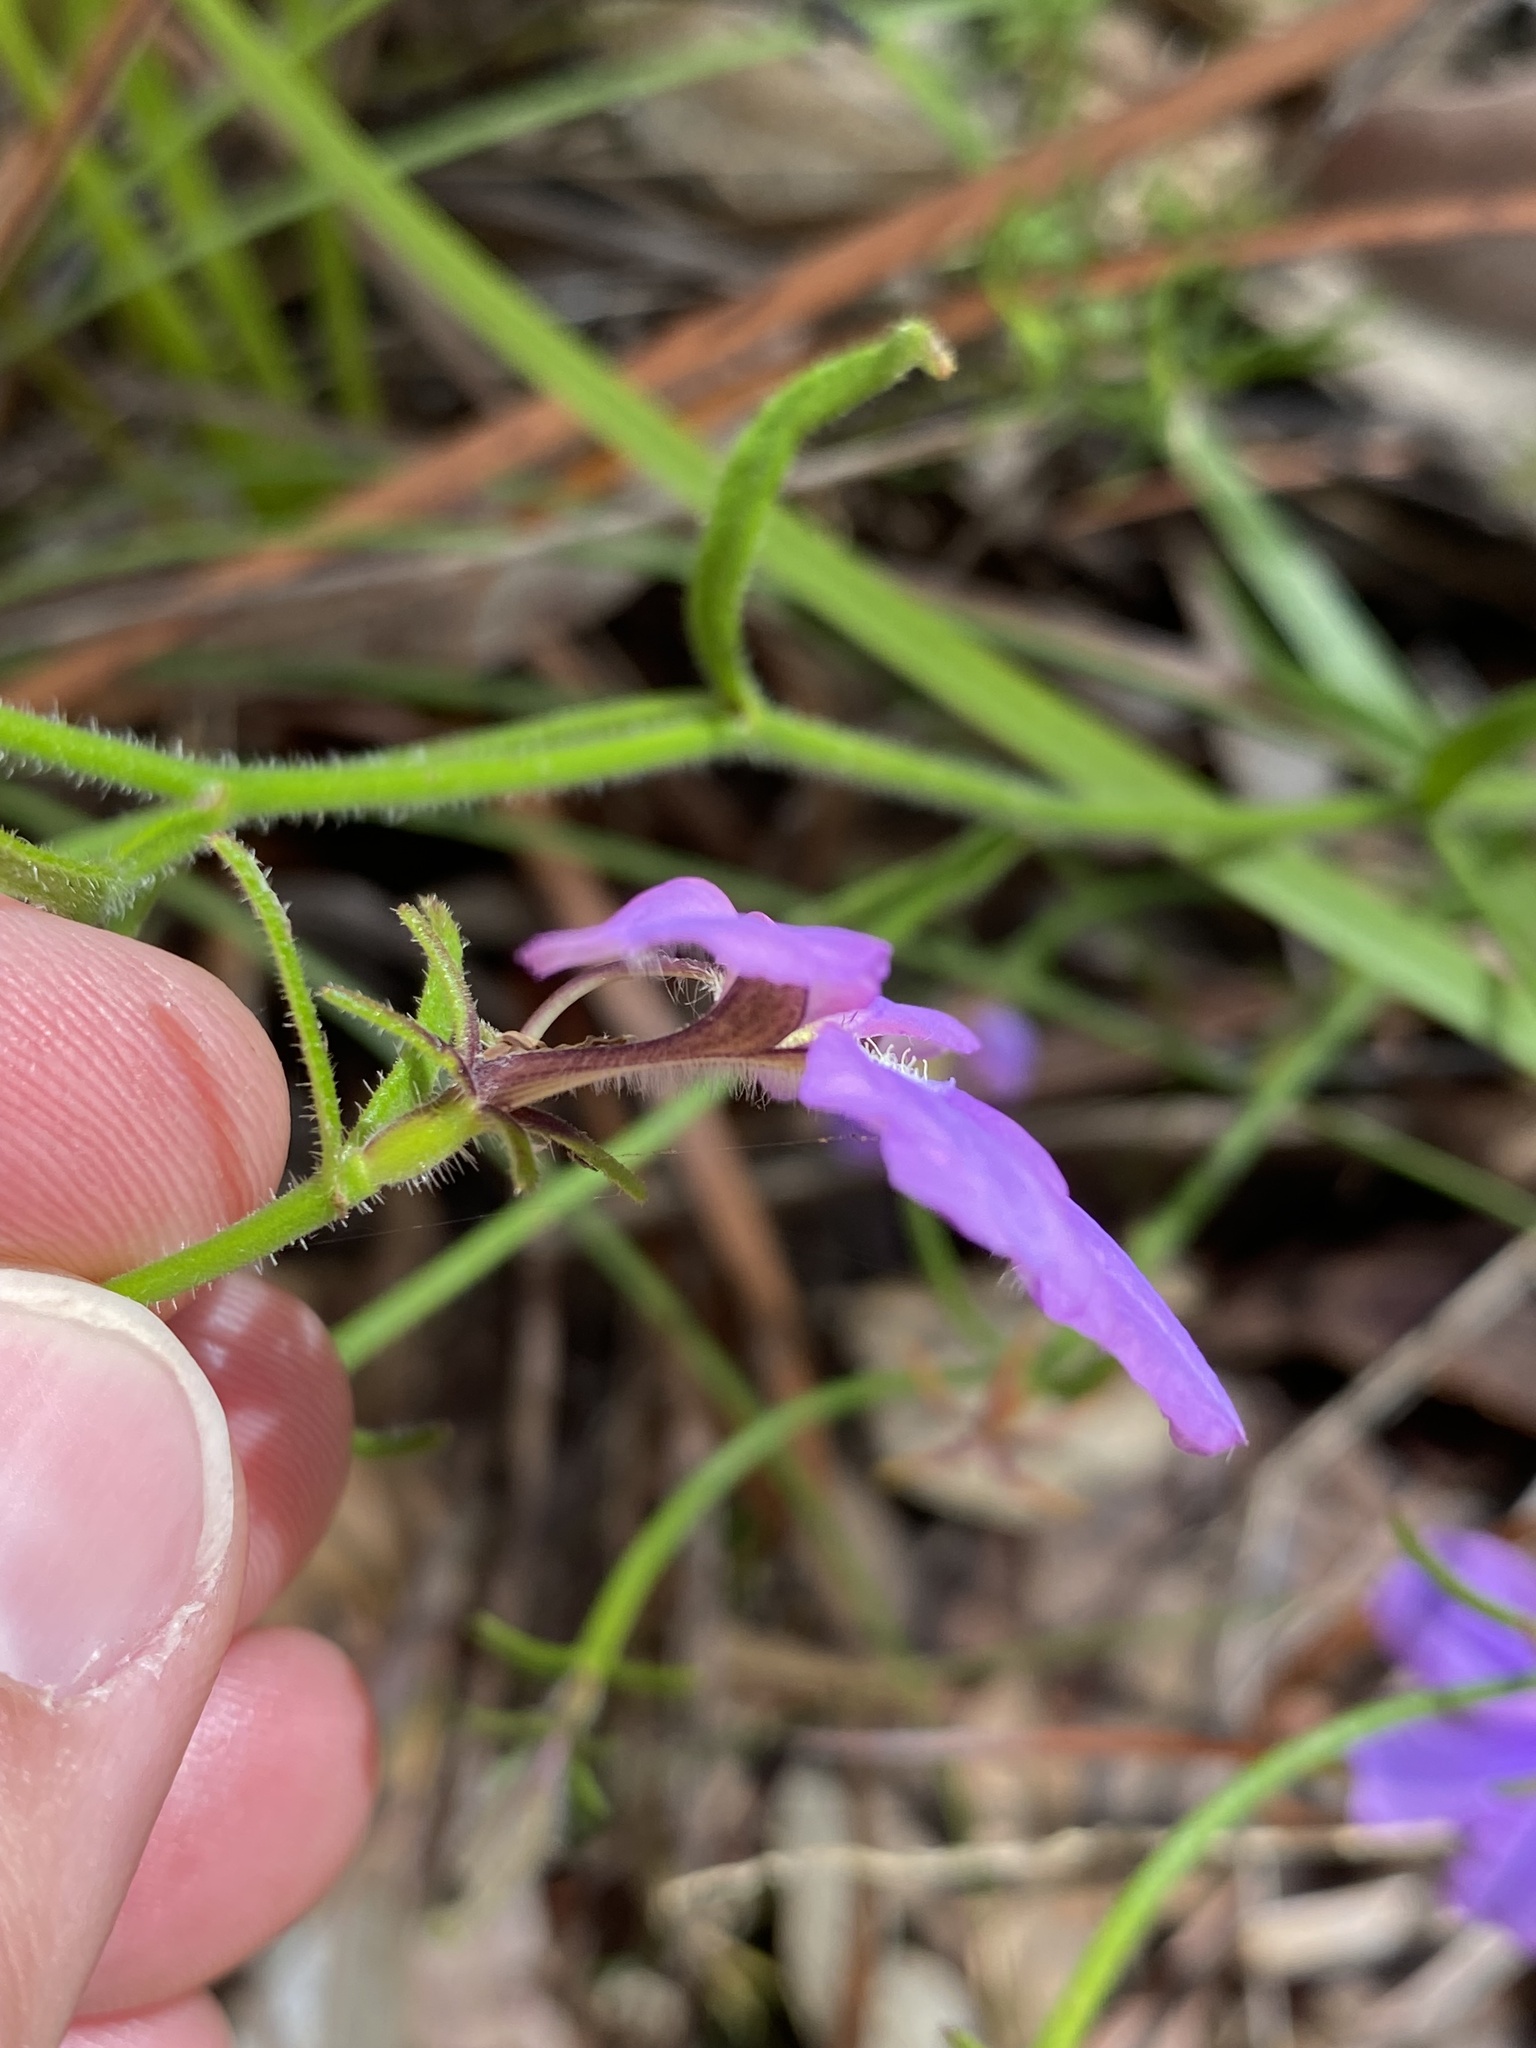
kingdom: Plantae
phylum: Tracheophyta
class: Magnoliopsida
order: Asterales
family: Goodeniaceae
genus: Scaevola
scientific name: Scaevola ramosissima
